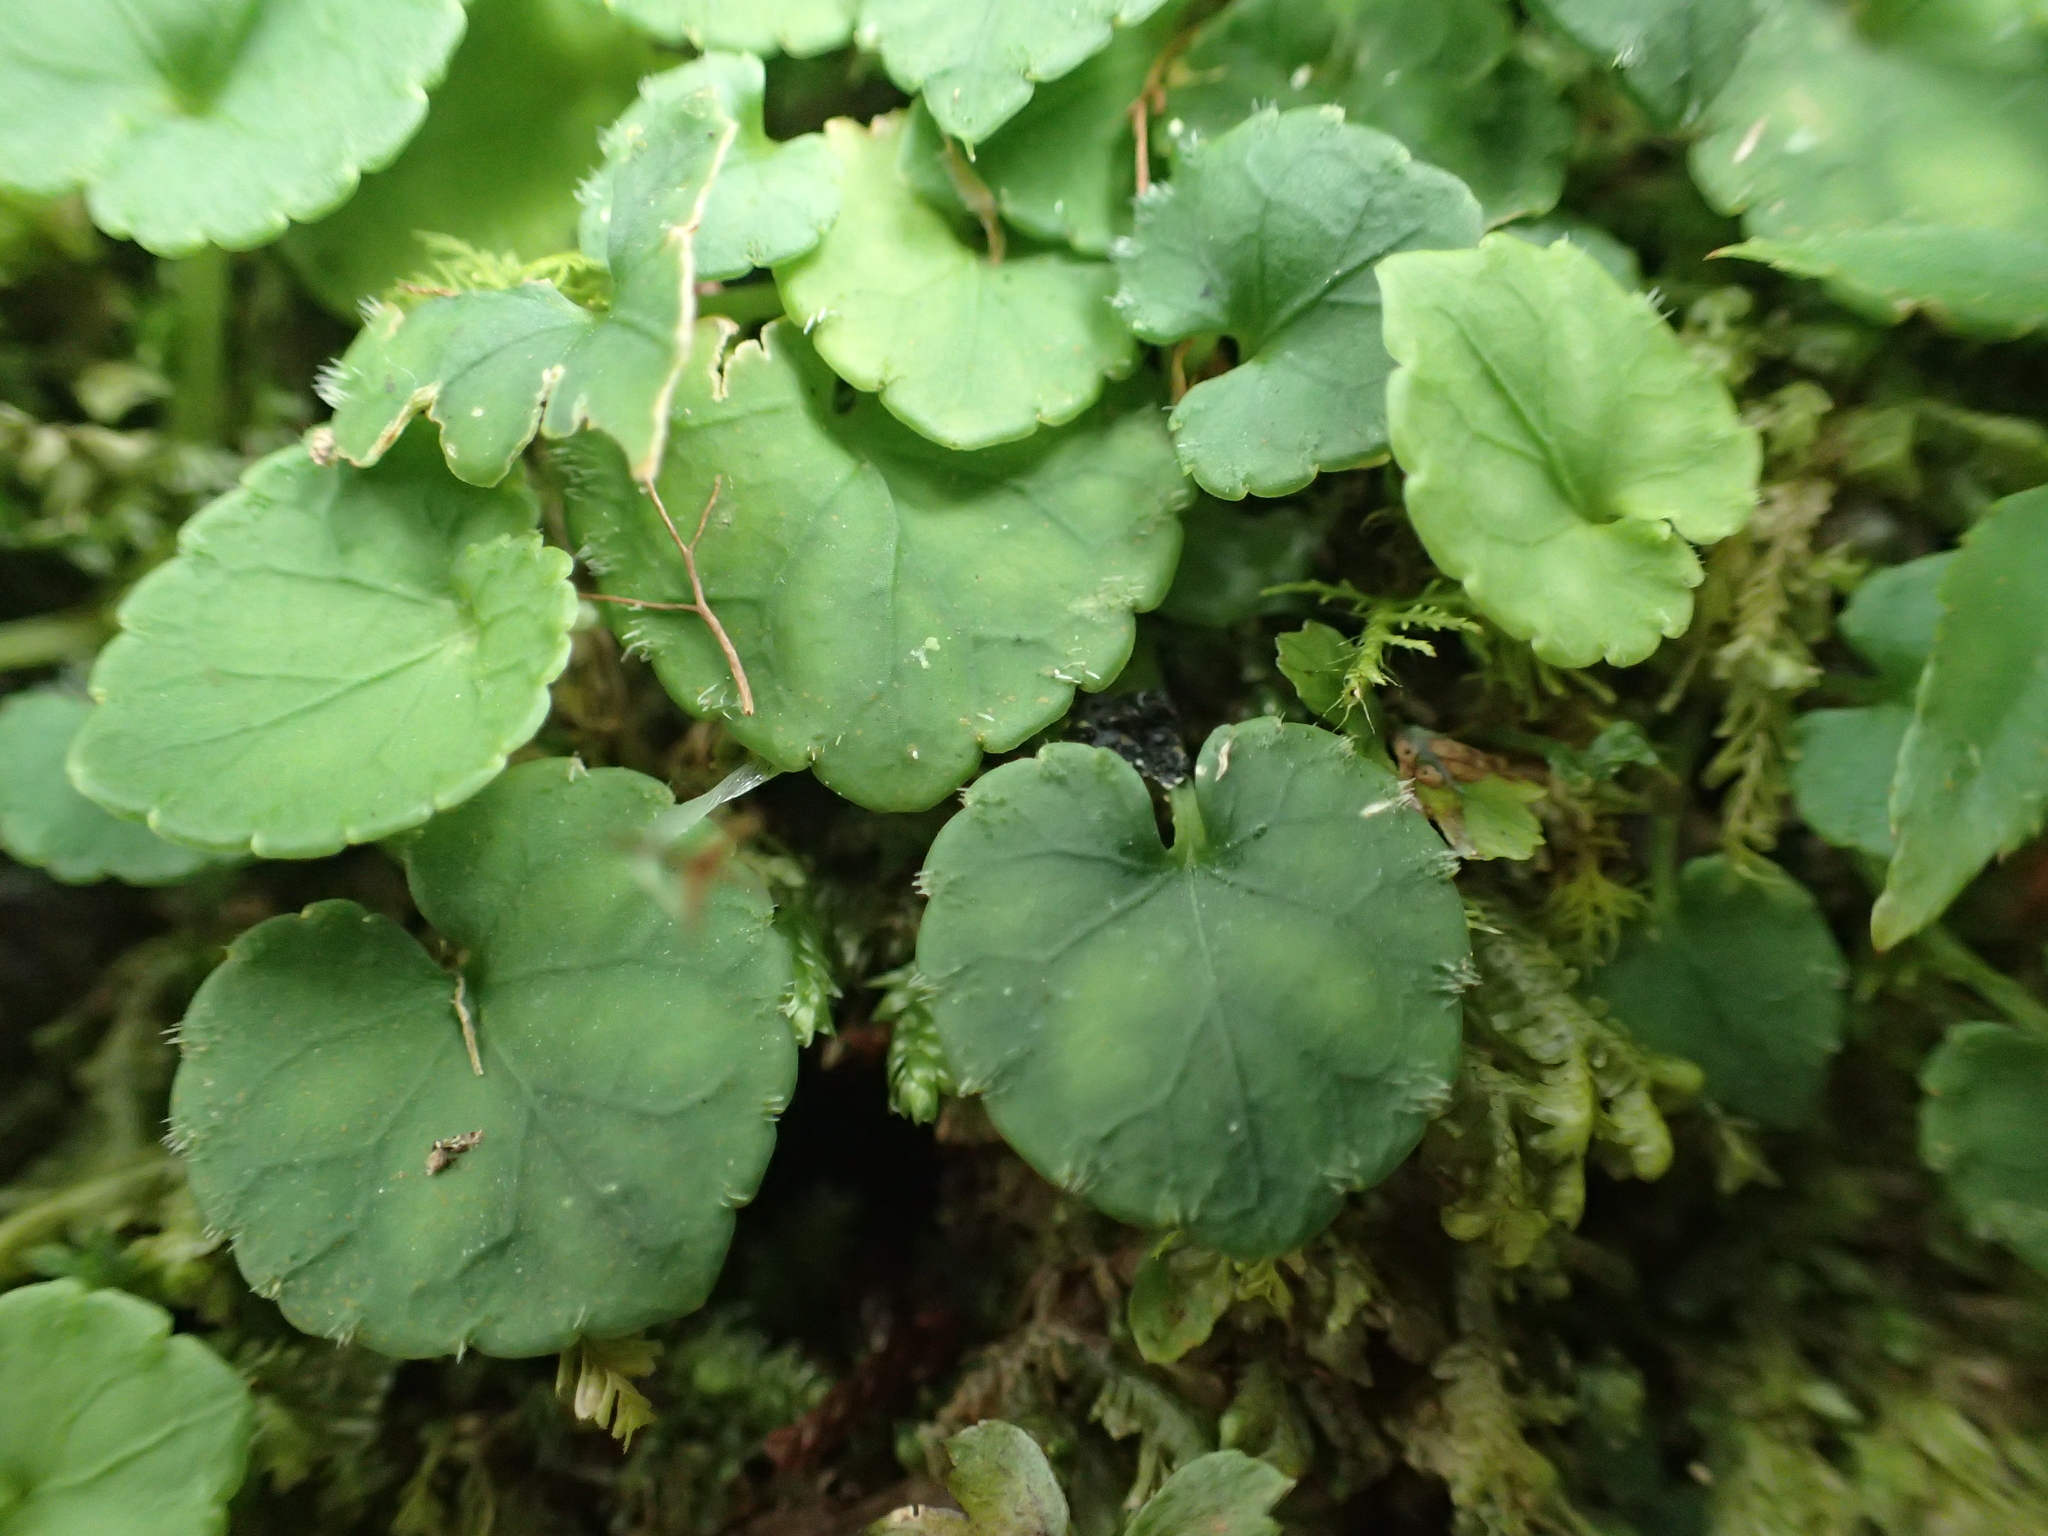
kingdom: Plantae
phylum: Tracheophyta
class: Magnoliopsida
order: Malpighiales
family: Violaceae
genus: Viola
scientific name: Viola formosana
